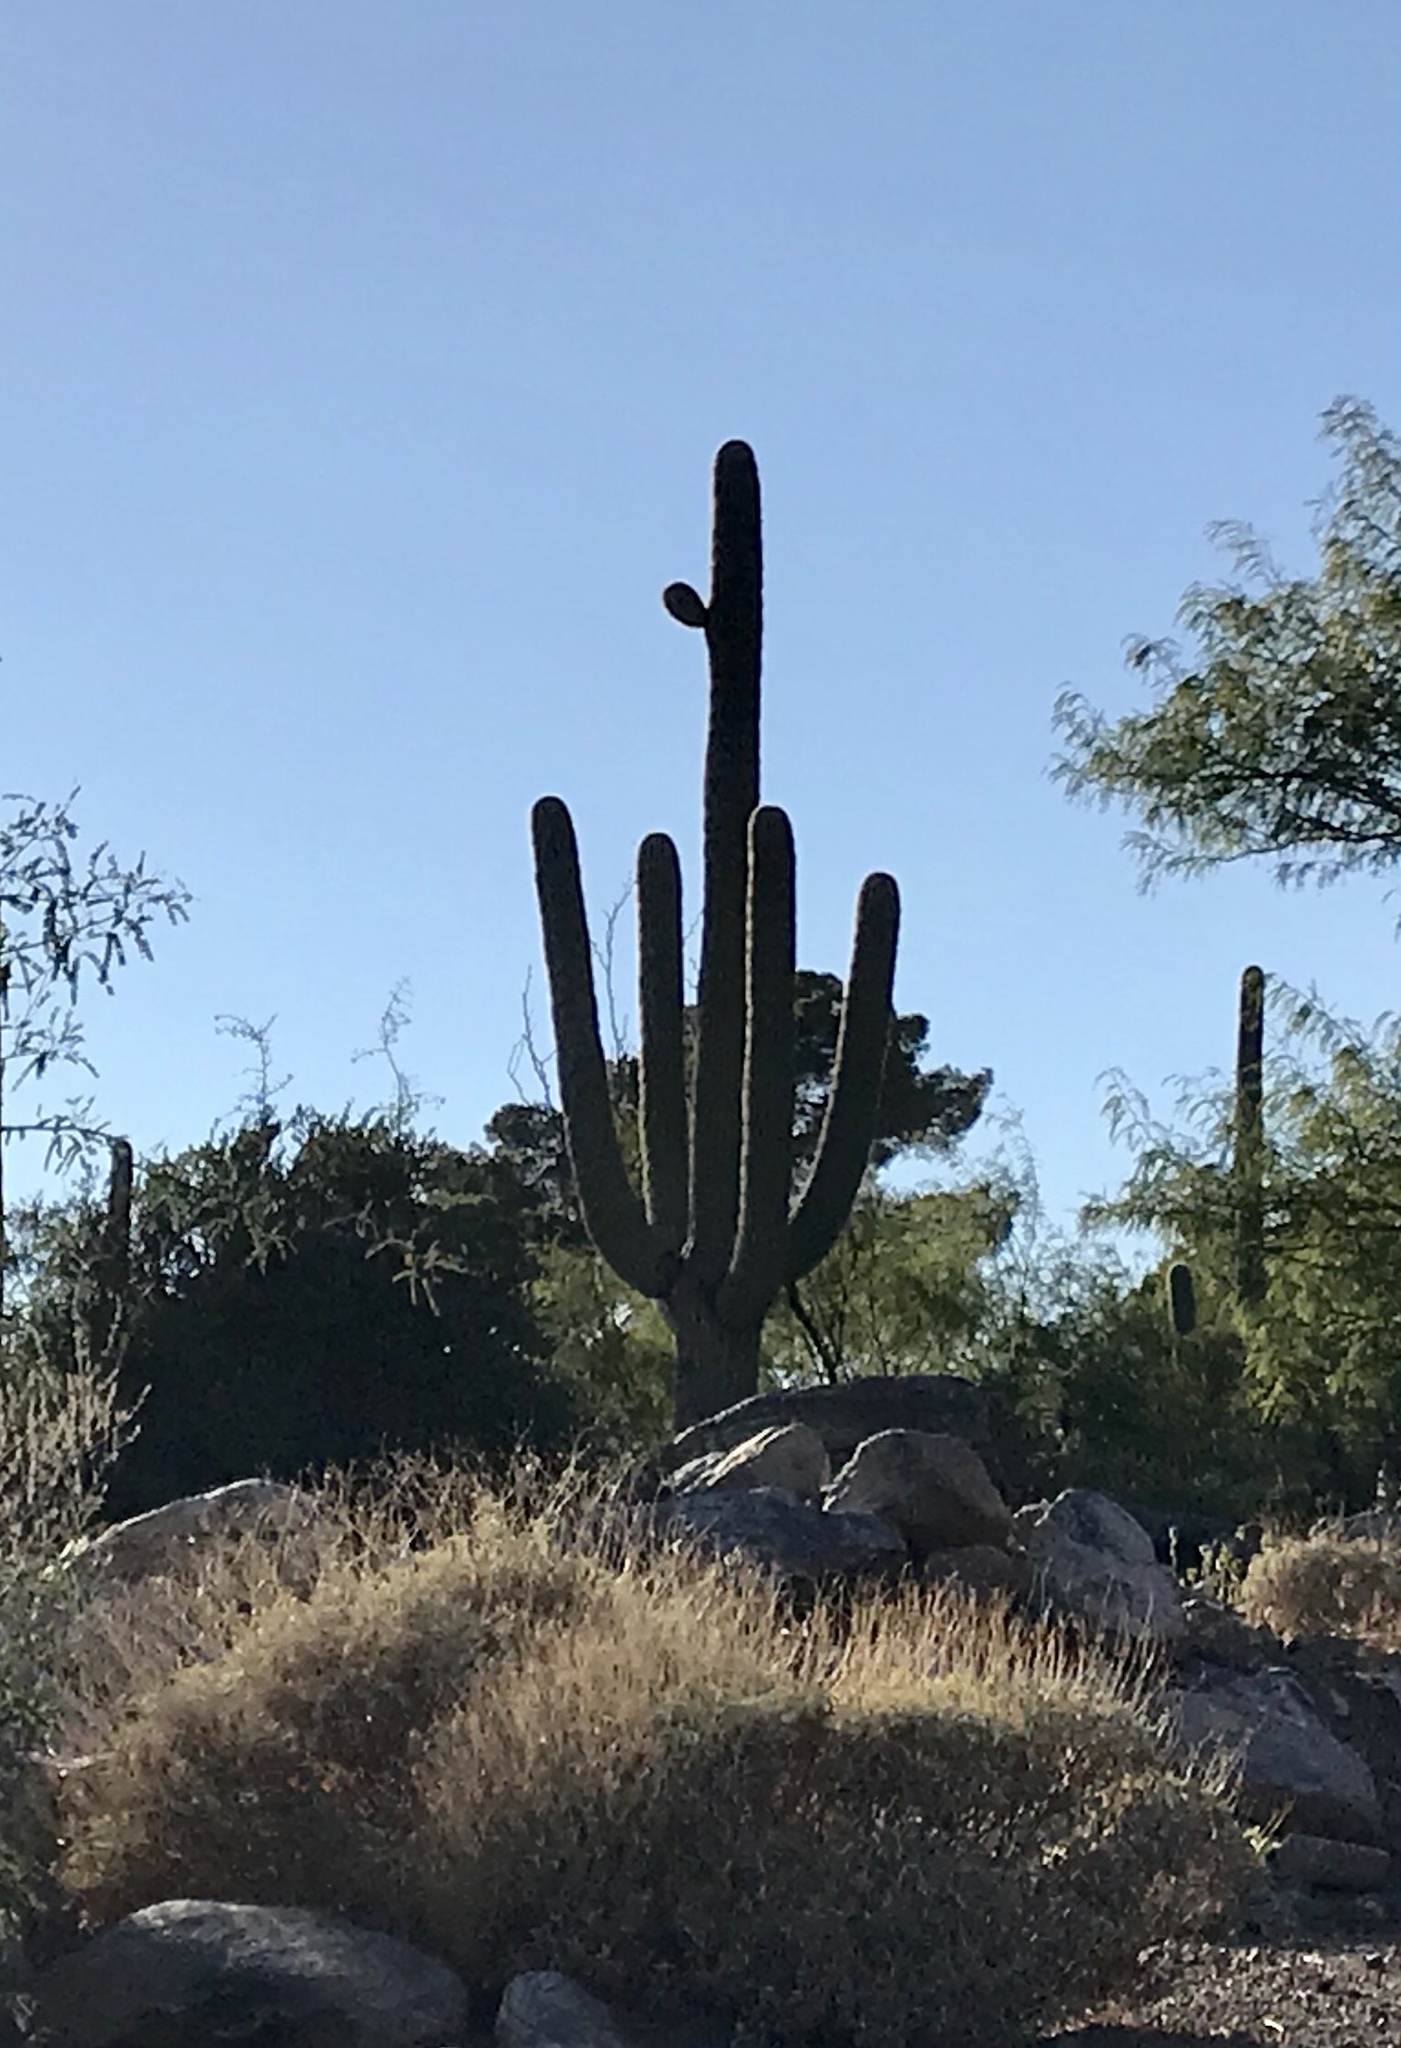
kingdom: Plantae
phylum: Tracheophyta
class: Magnoliopsida
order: Caryophyllales
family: Cactaceae
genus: Carnegiea
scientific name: Carnegiea gigantea
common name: Saguaro
